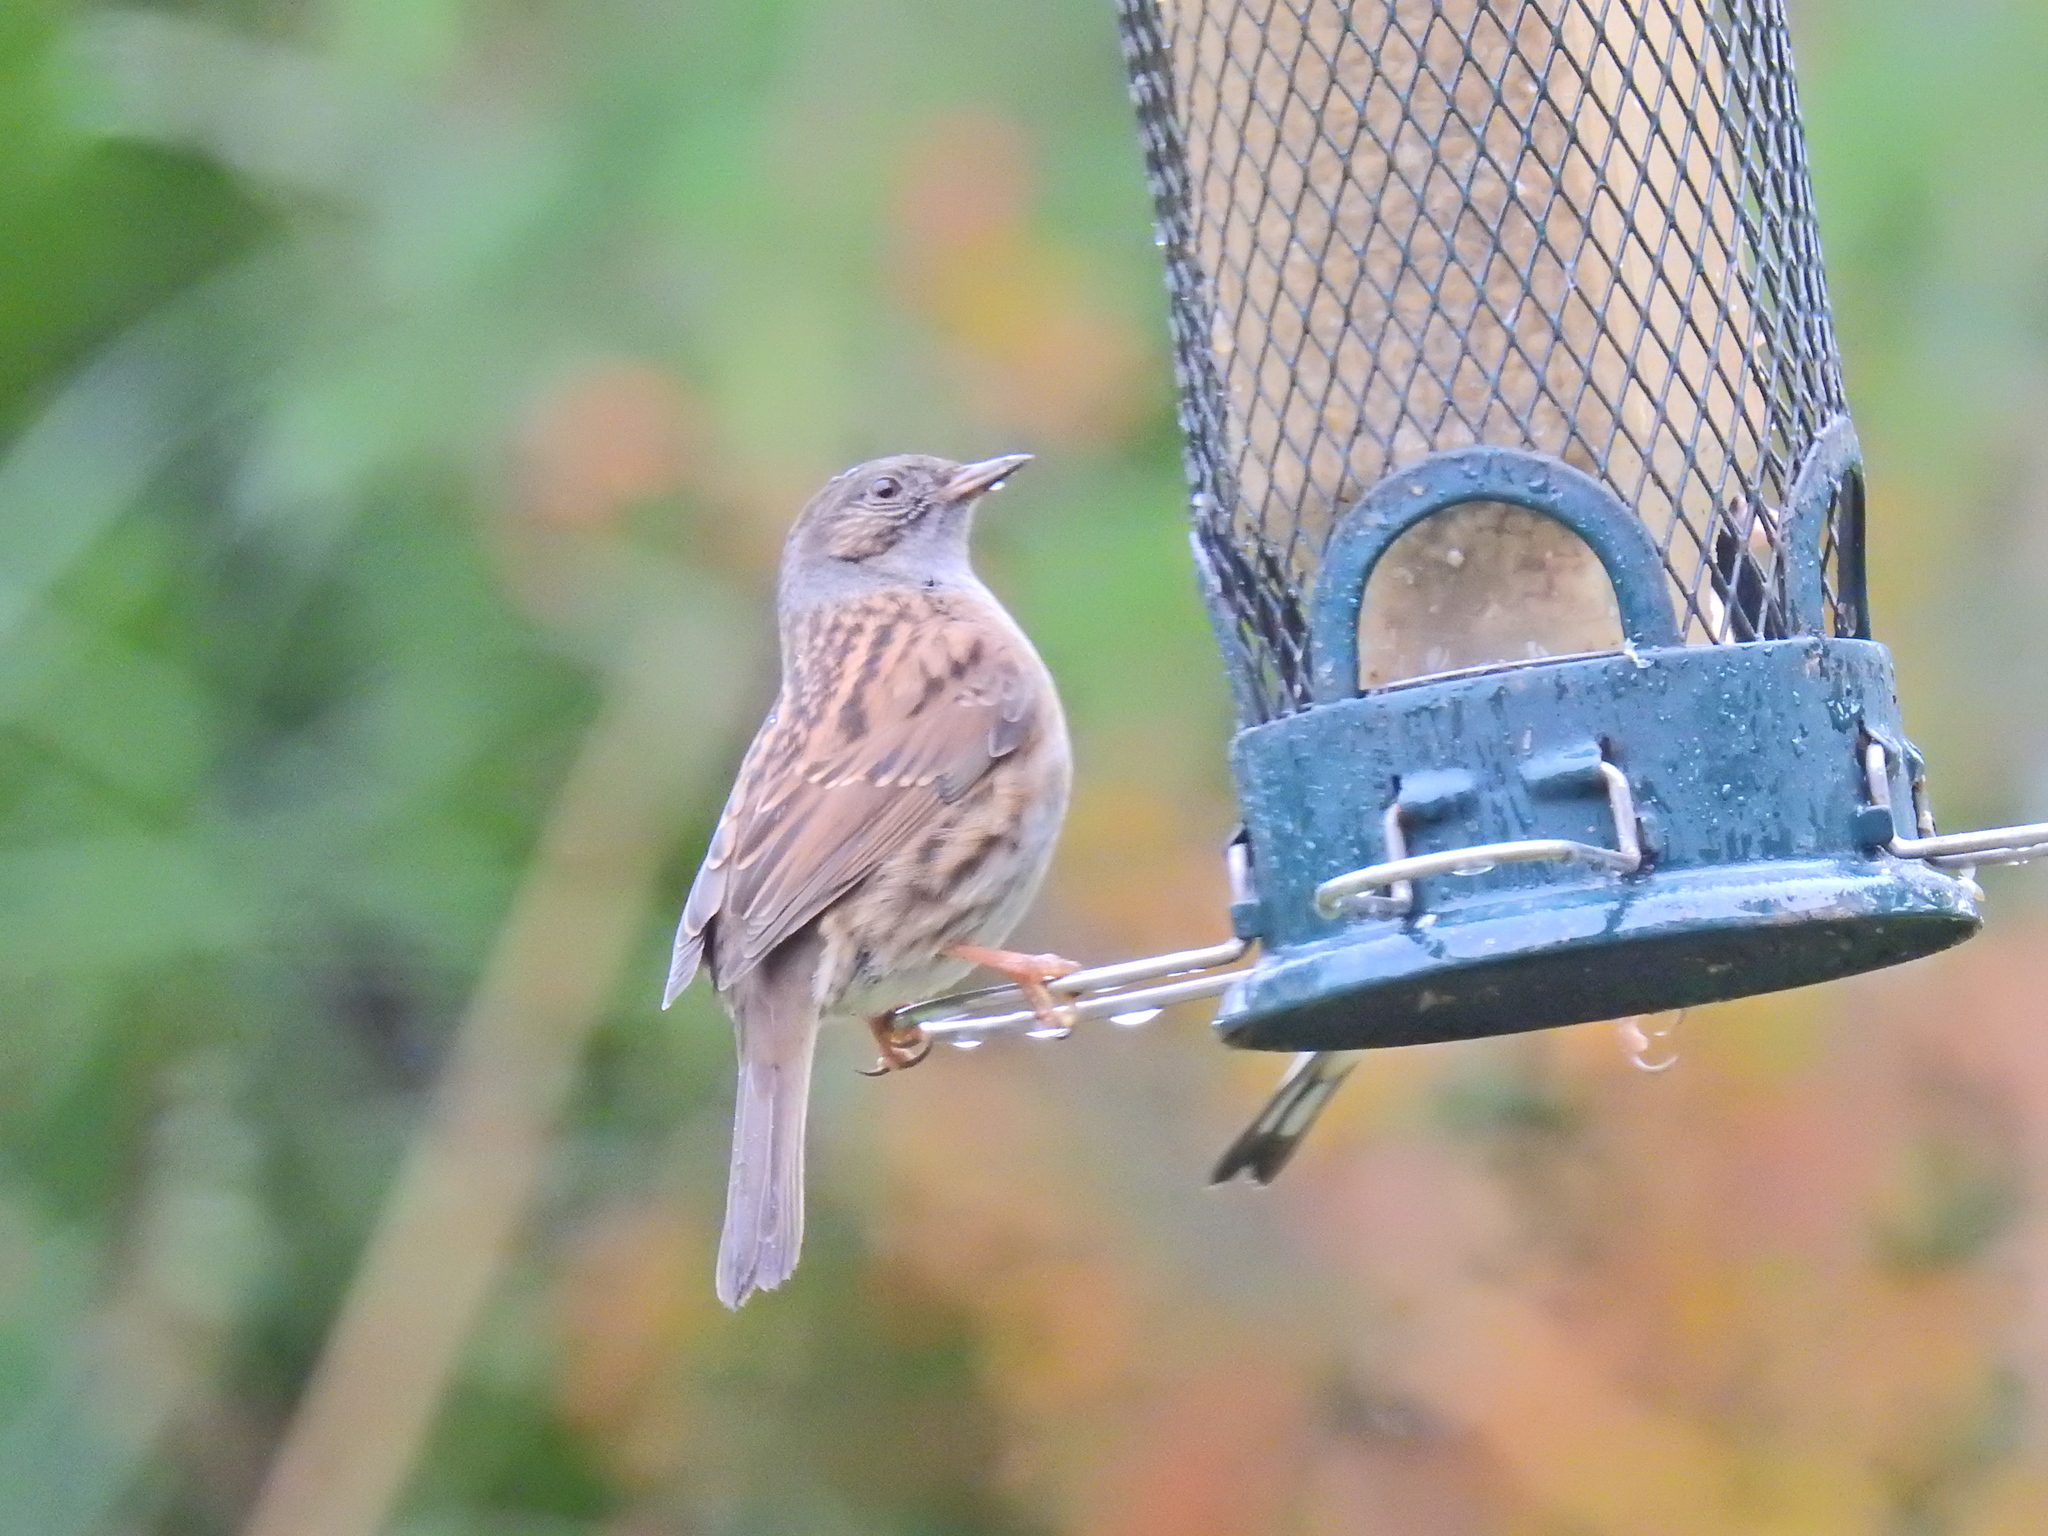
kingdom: Animalia
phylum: Chordata
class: Aves
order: Passeriformes
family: Prunellidae
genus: Prunella
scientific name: Prunella modularis
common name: Dunnock
